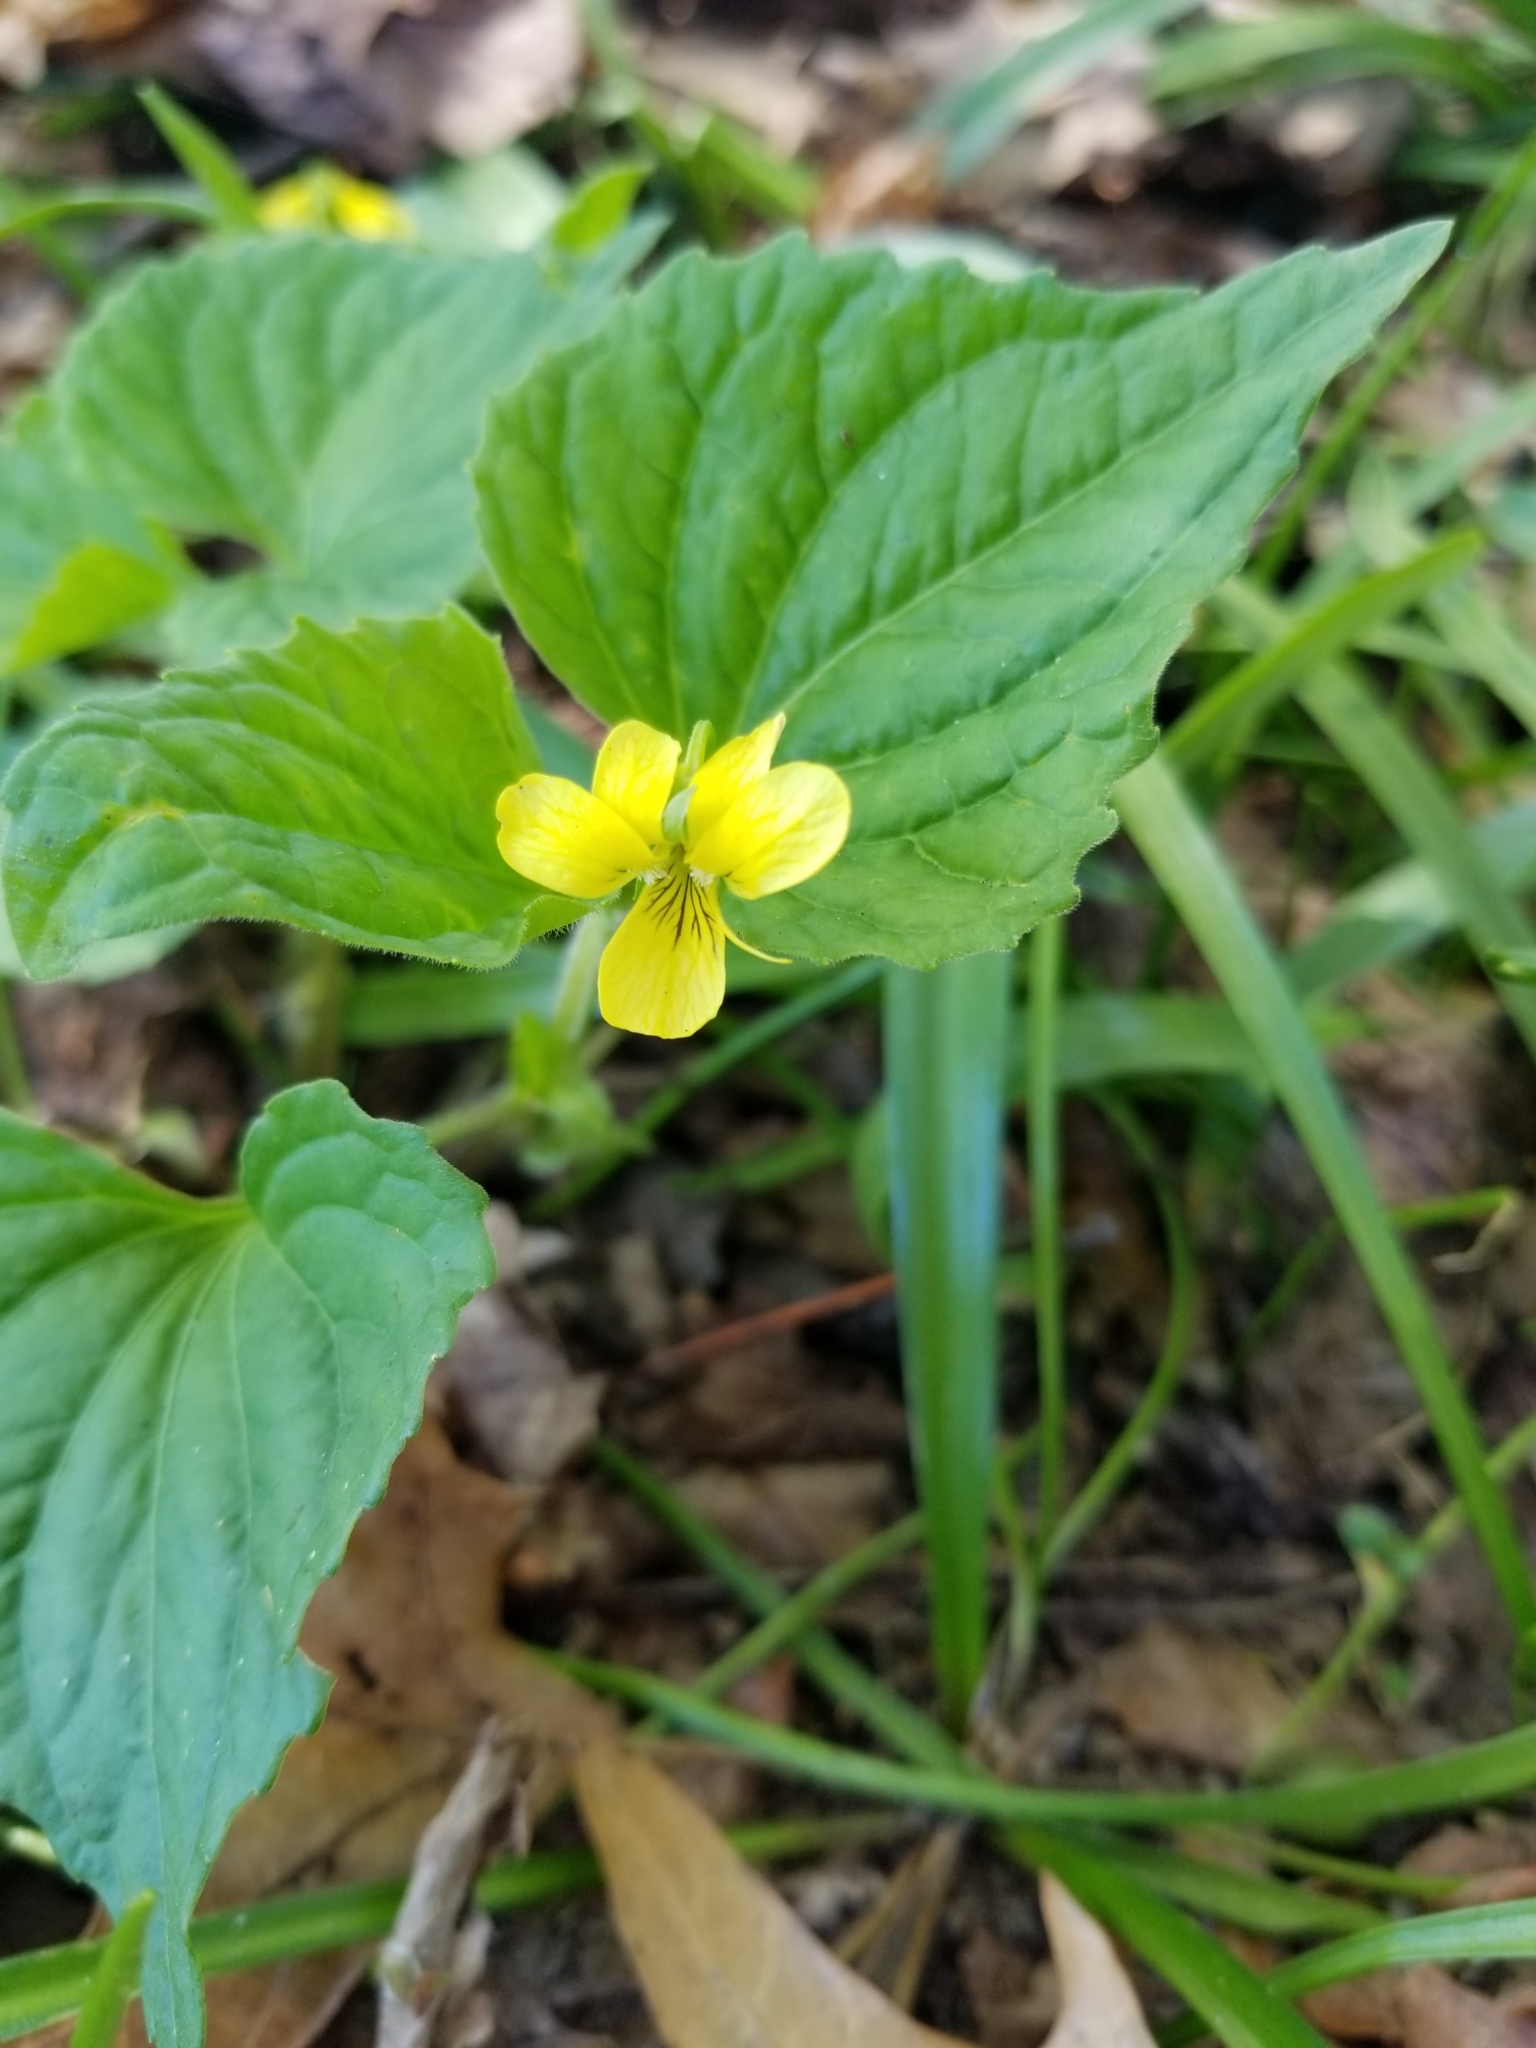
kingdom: Plantae
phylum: Tracheophyta
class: Magnoliopsida
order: Malpighiales
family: Violaceae
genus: Viola
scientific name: Viola eriocarpa
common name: Smooth yellow violet
